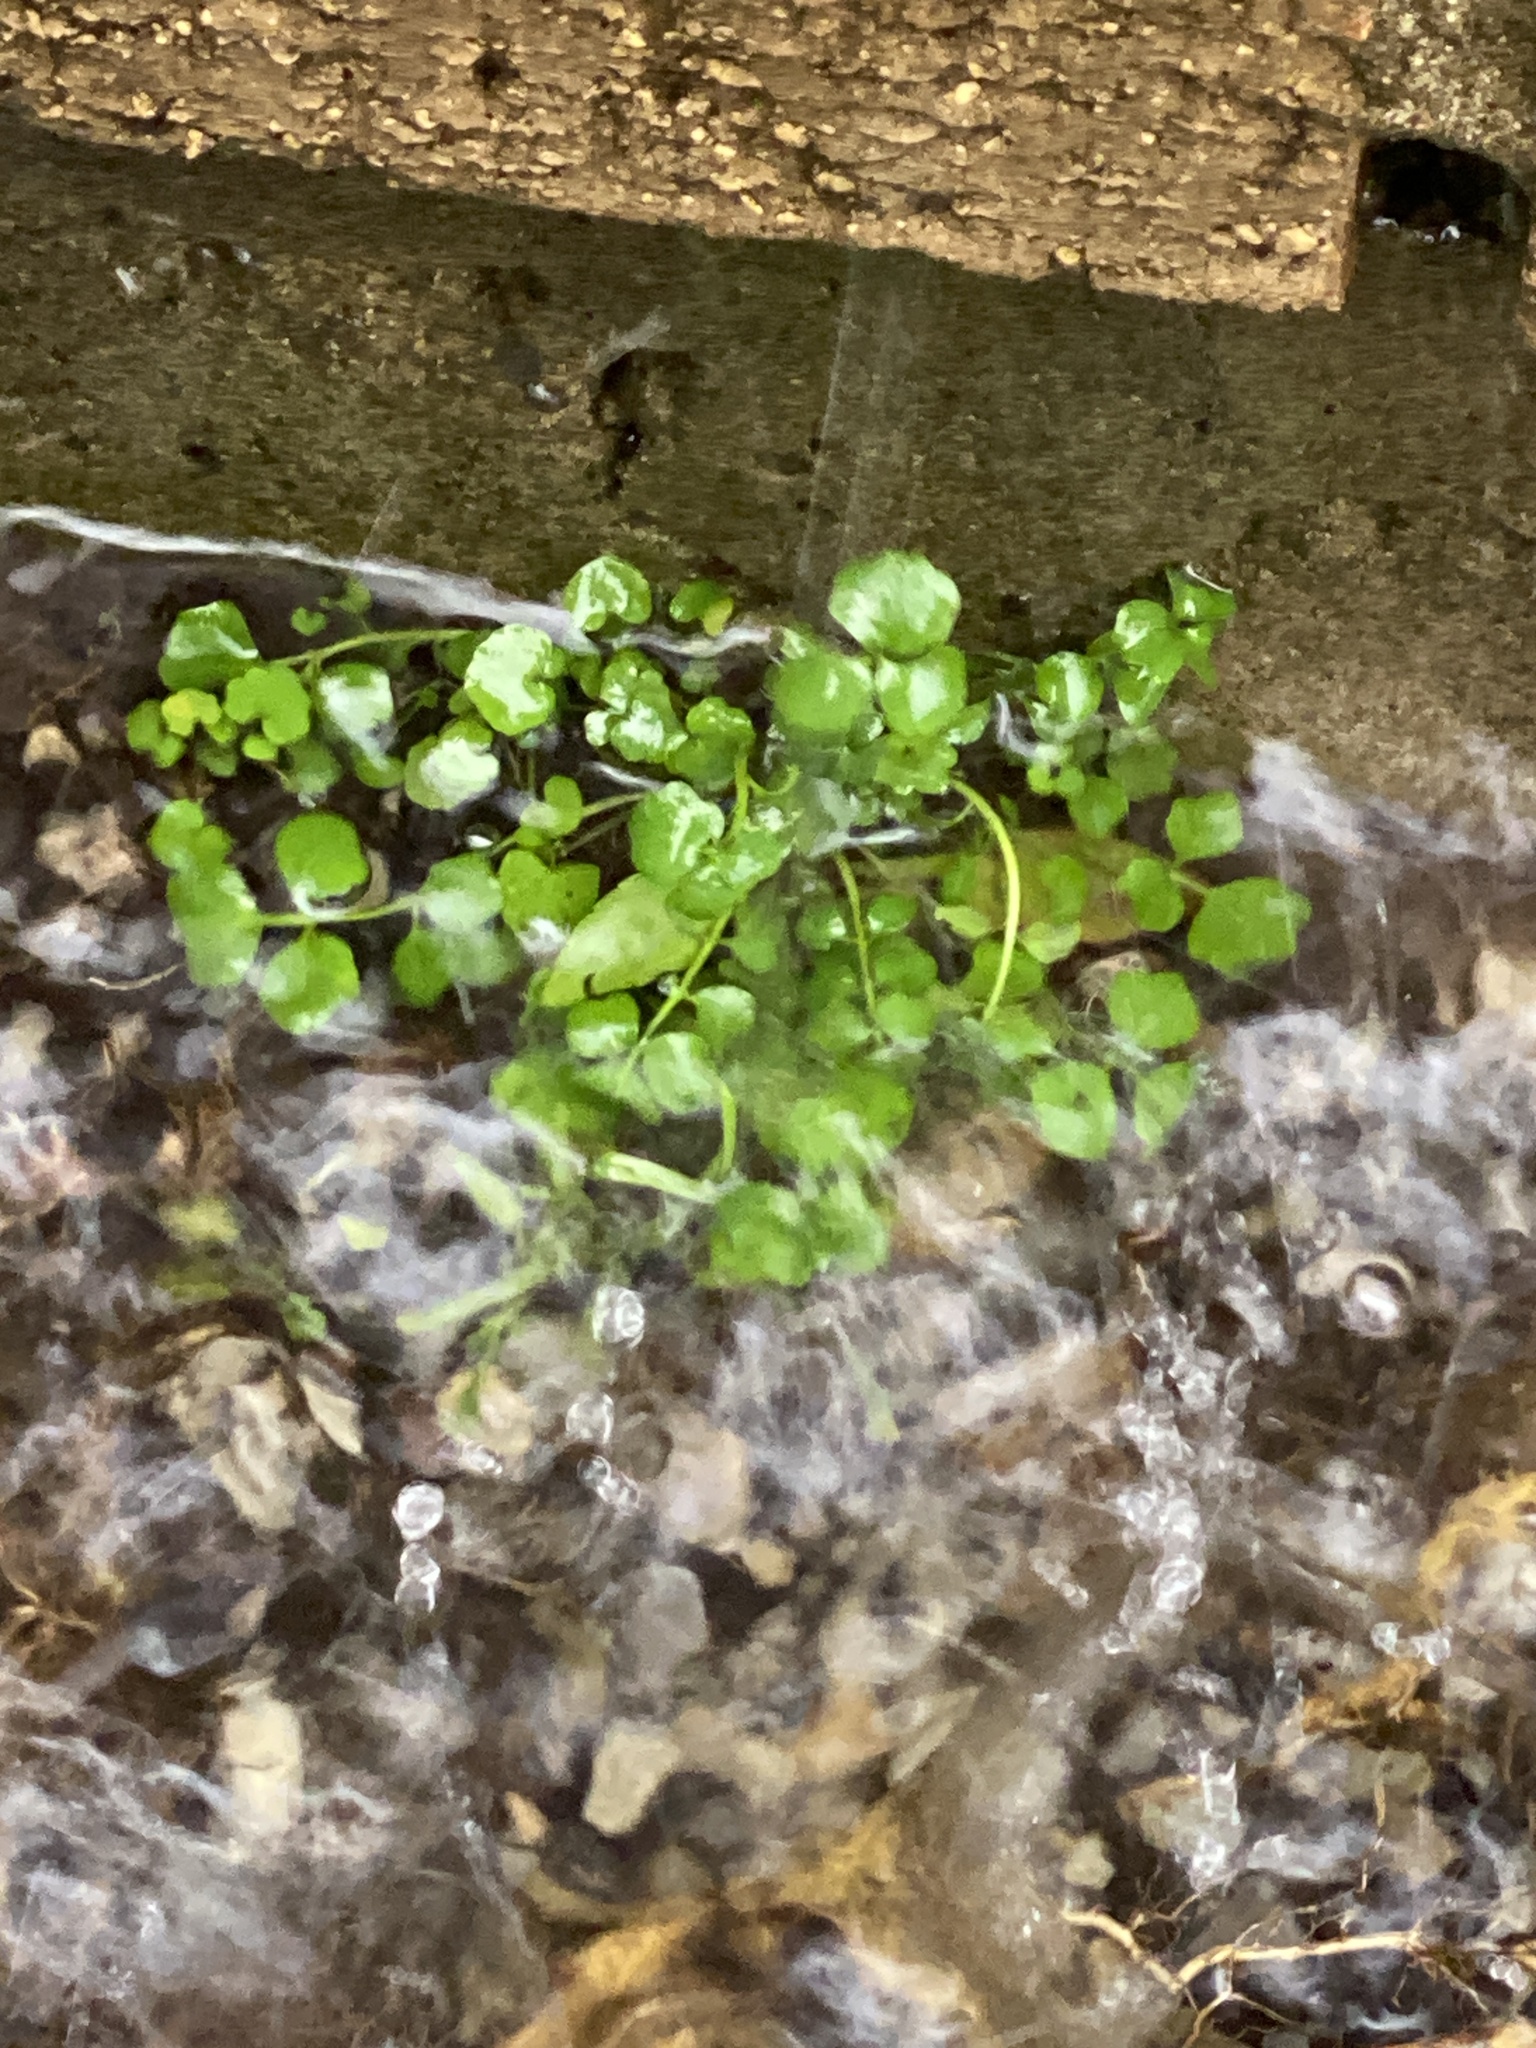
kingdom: Plantae
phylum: Tracheophyta
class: Magnoliopsida
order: Brassicales
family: Brassicaceae
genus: Nasturtium
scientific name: Nasturtium officinale
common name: Watercress
